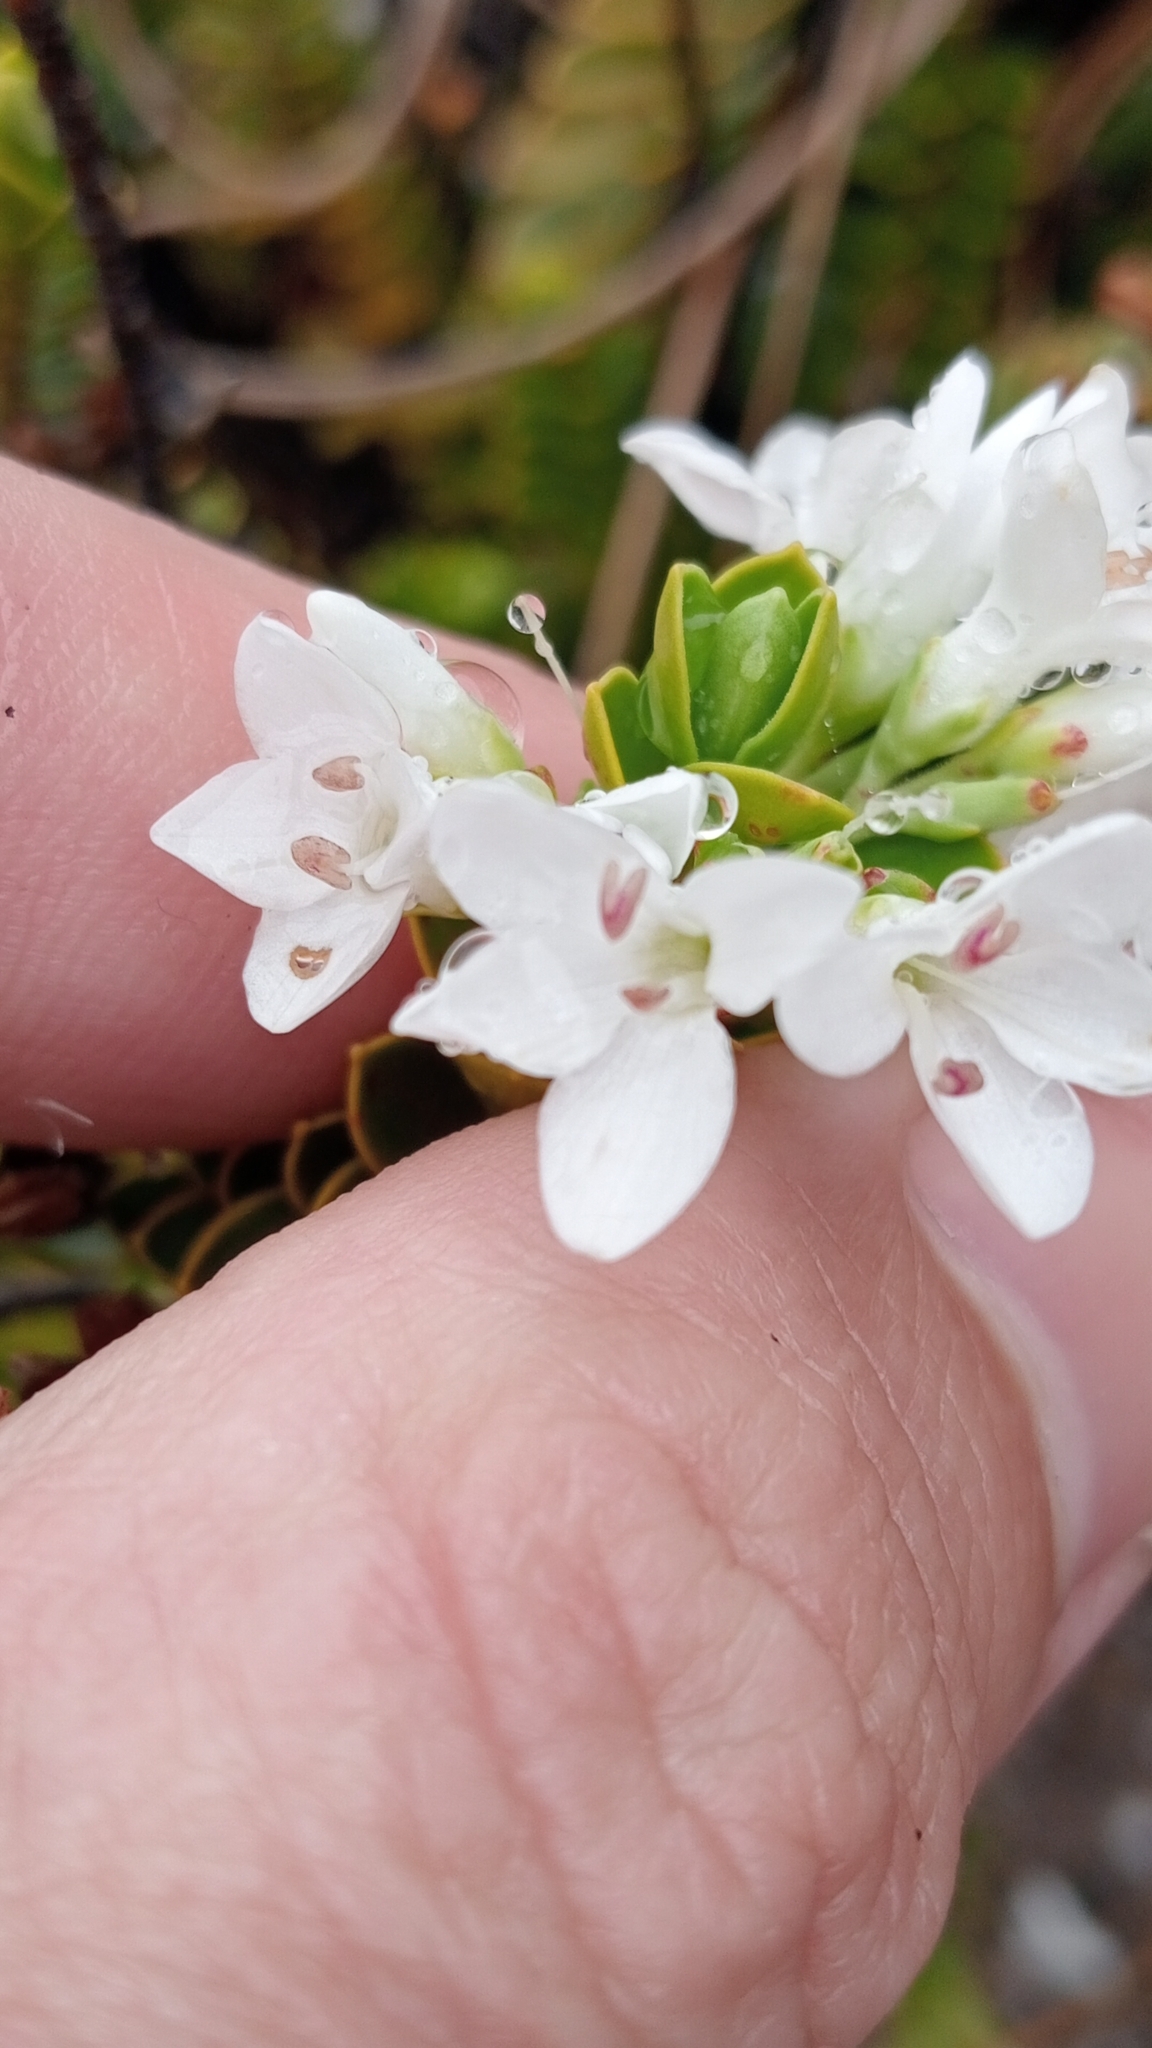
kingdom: Plantae
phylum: Tracheophyta
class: Magnoliopsida
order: Lamiales
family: Plantaginaceae
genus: Veronica
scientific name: Veronica canterburiensis
